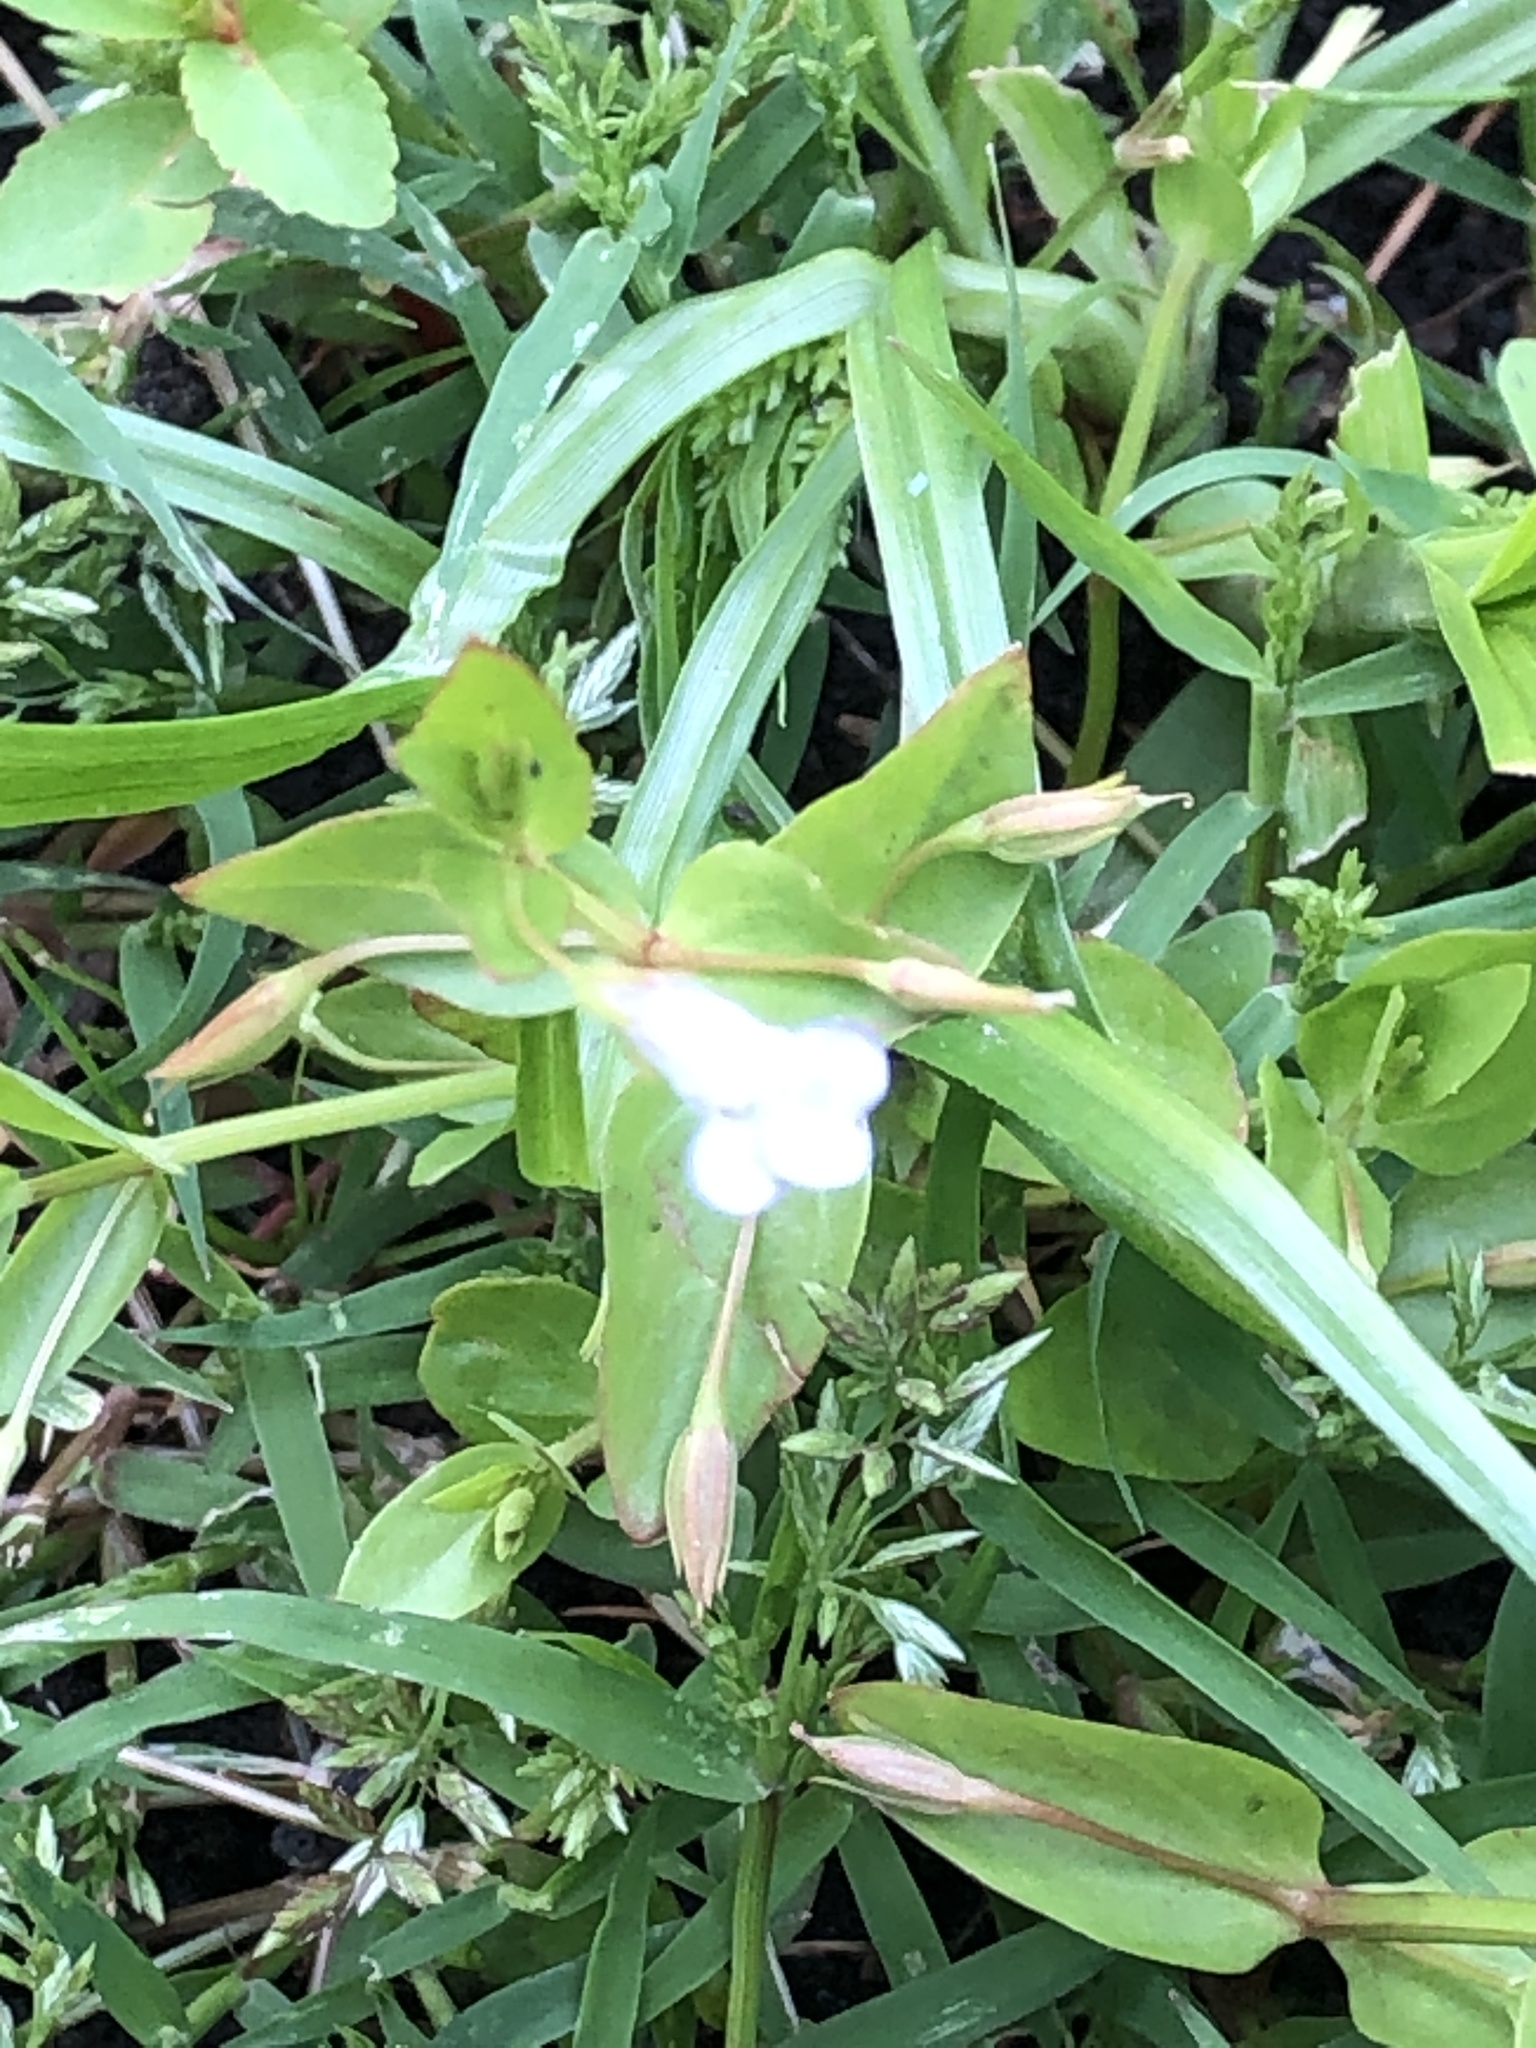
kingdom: Plantae
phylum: Tracheophyta
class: Magnoliopsida
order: Lamiales
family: Linderniaceae
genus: Lindernia
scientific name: Lindernia dubia
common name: Annual false pimpernel
